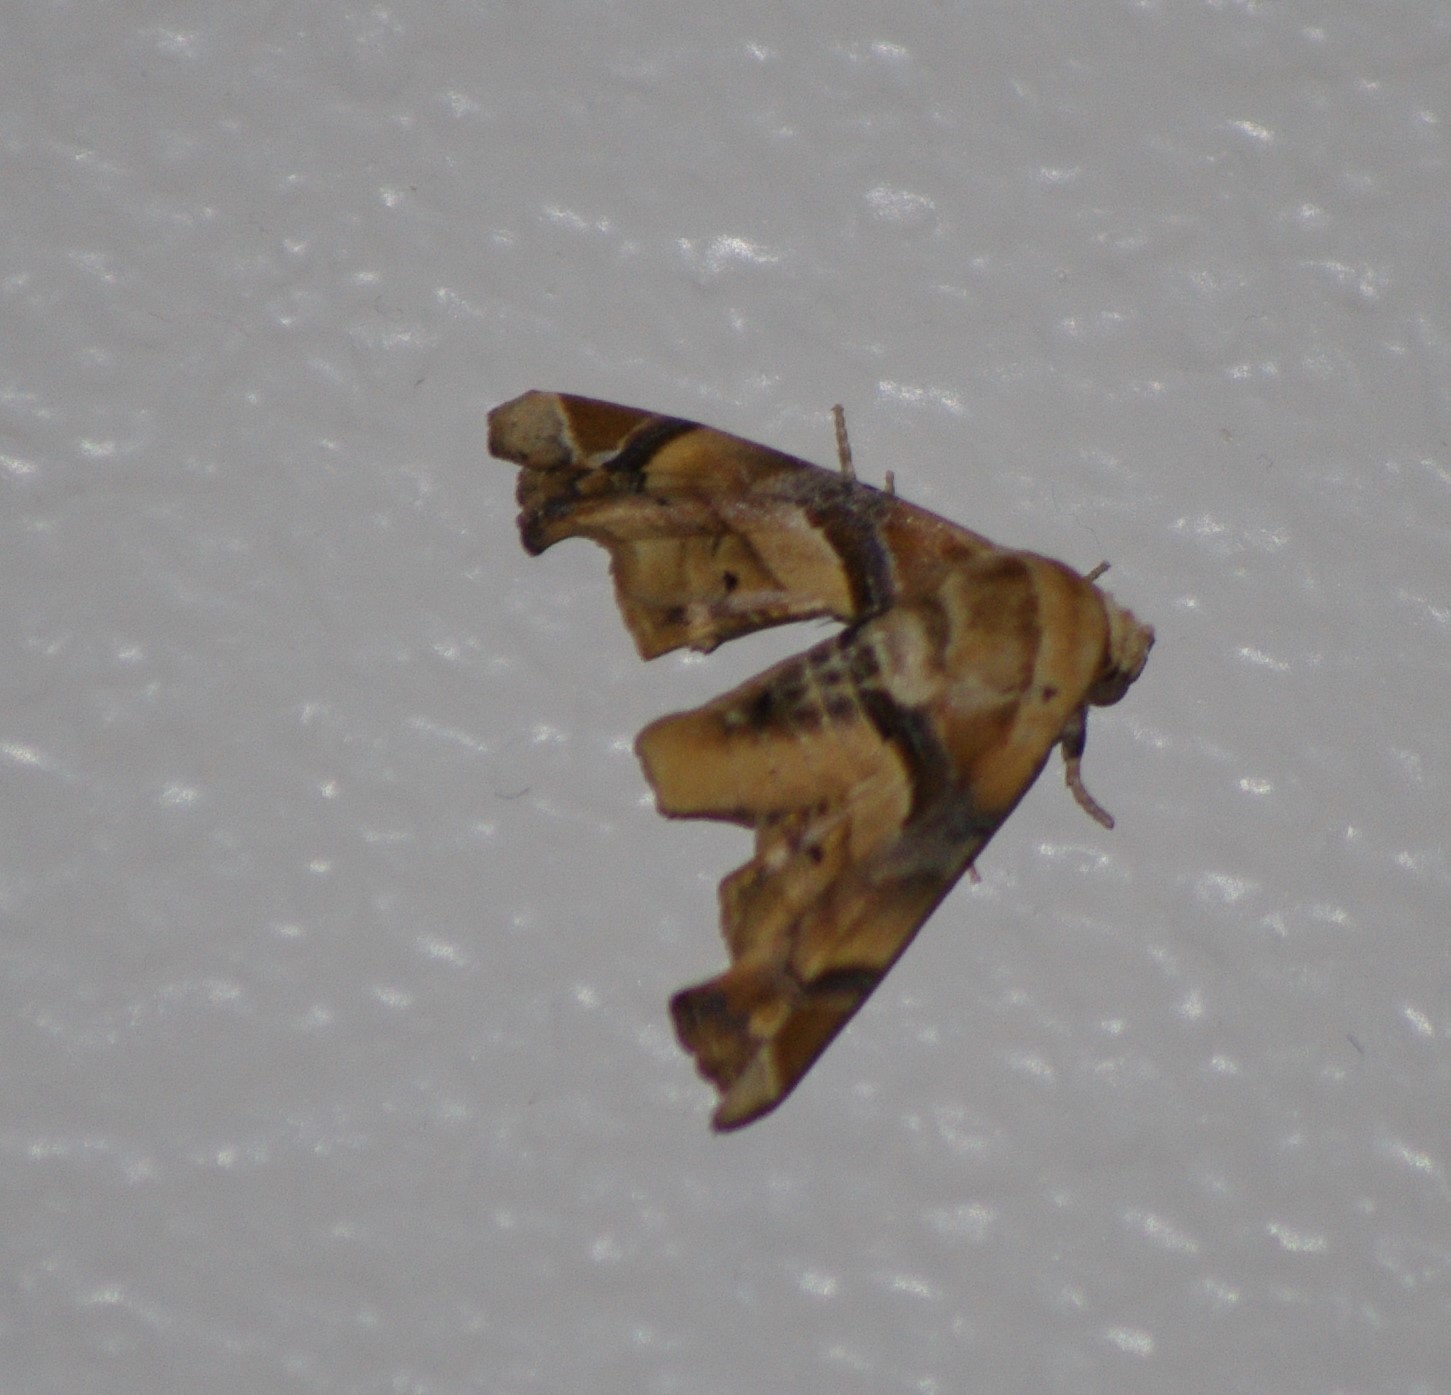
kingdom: Animalia
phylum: Arthropoda
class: Insecta
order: Lepidoptera
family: Euteliidae
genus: Eutelia
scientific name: Eutelia gilvicolor
